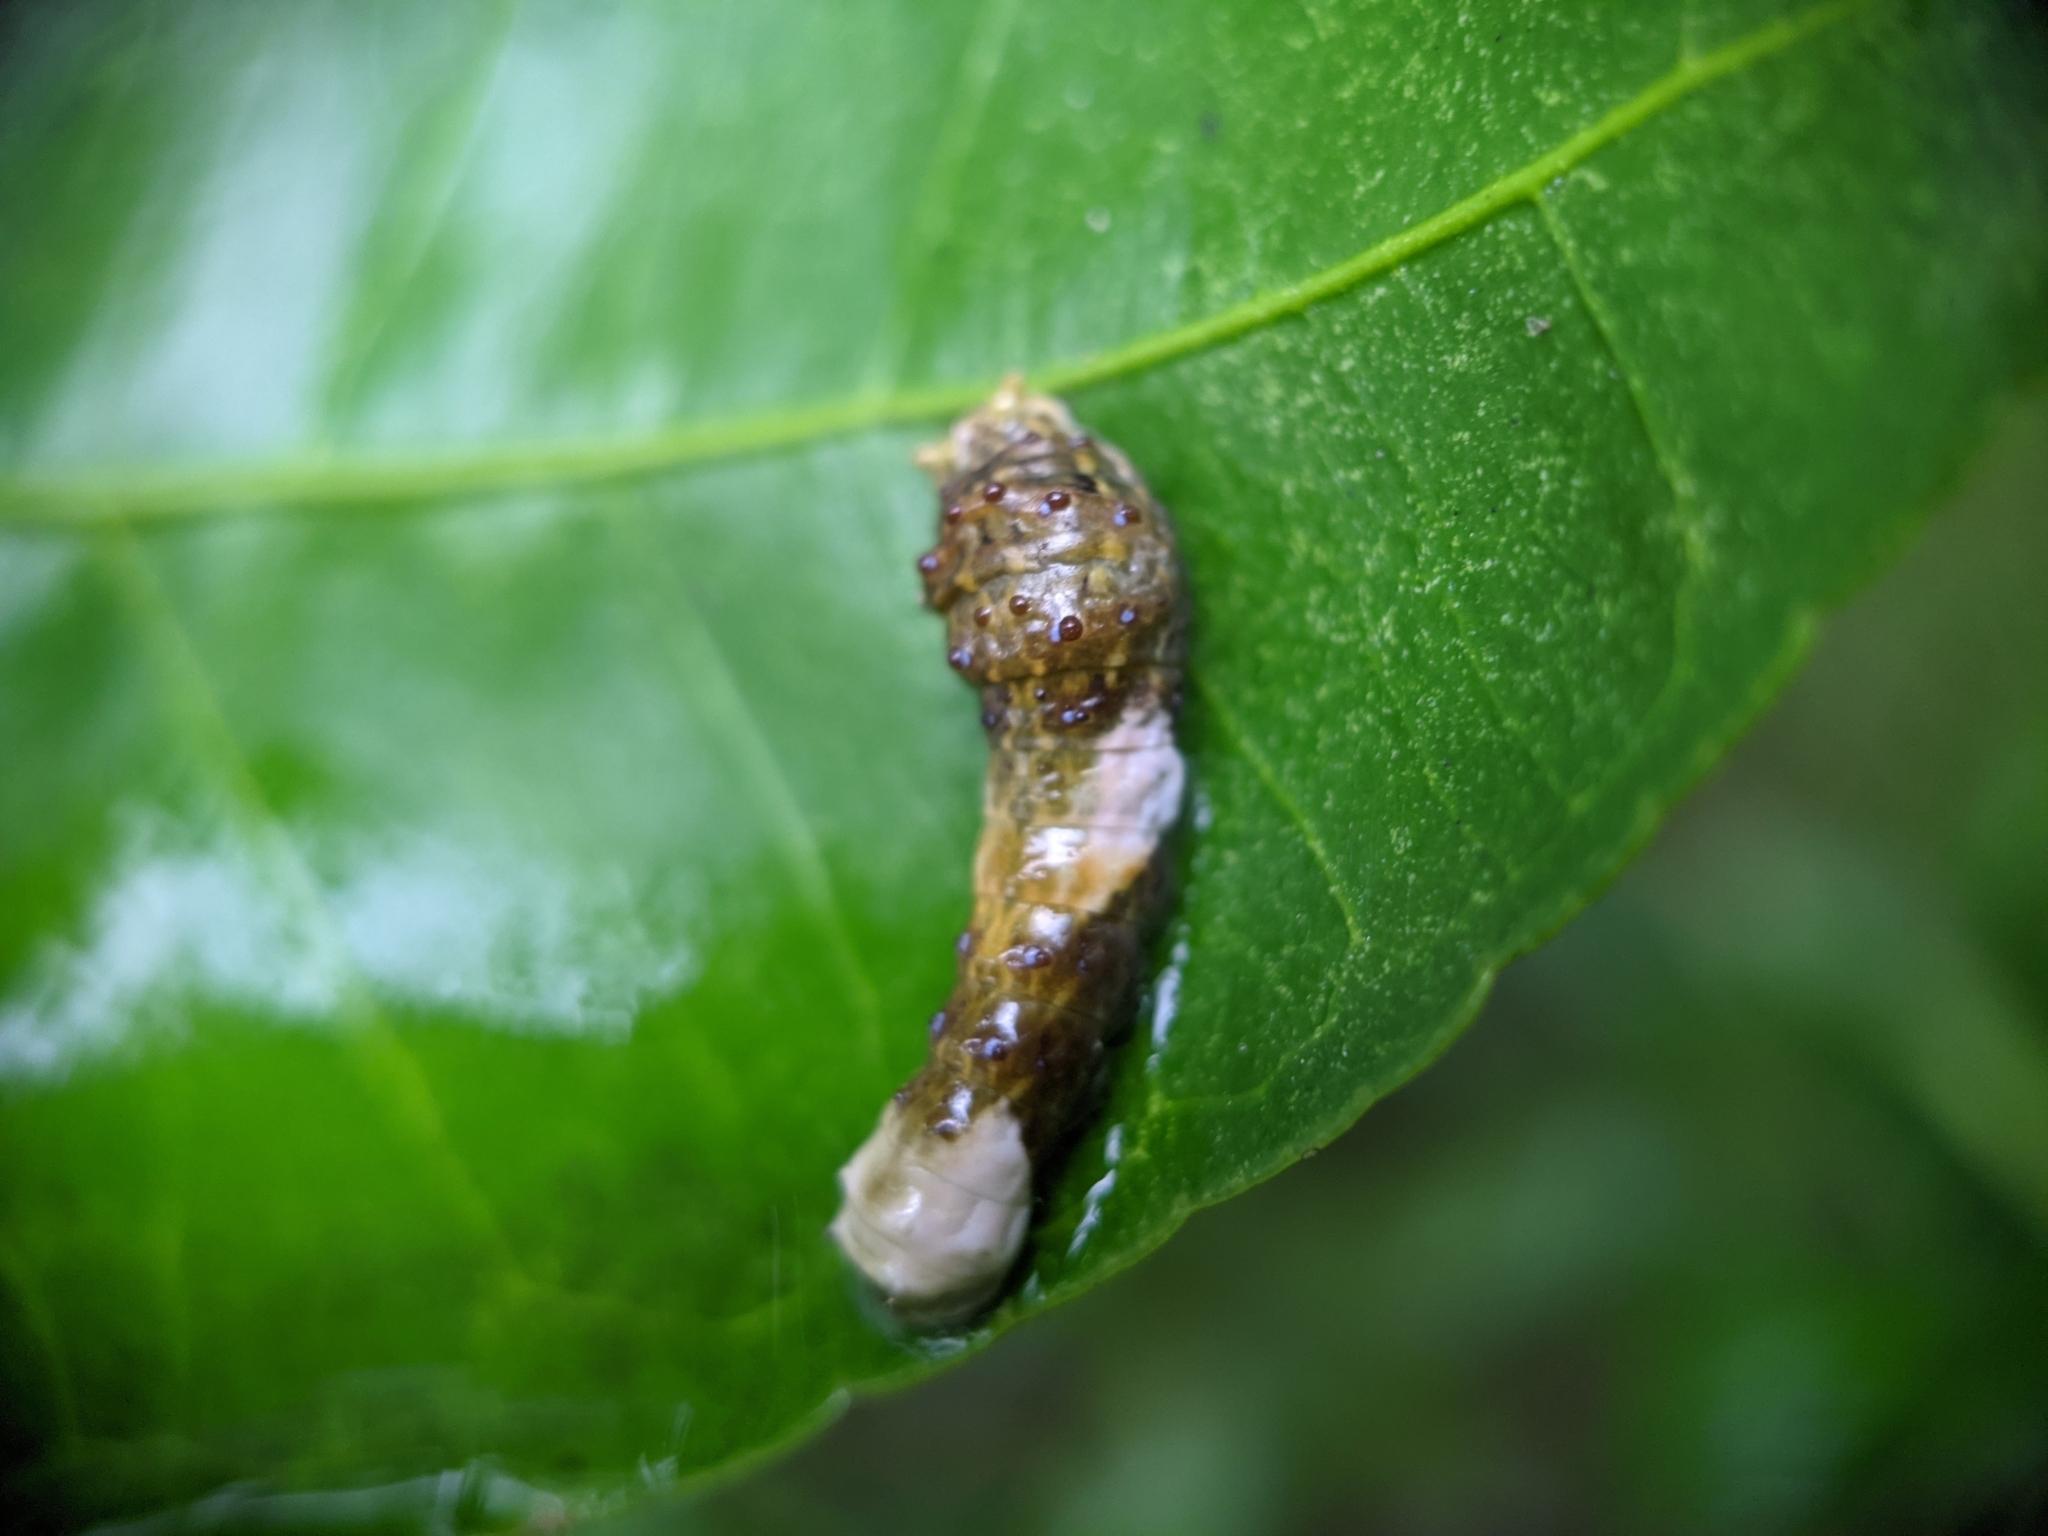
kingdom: Animalia
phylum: Arthropoda
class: Insecta
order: Lepidoptera
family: Papilionidae
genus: Papilio
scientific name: Papilio cresphontes
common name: Giant swallowtail
